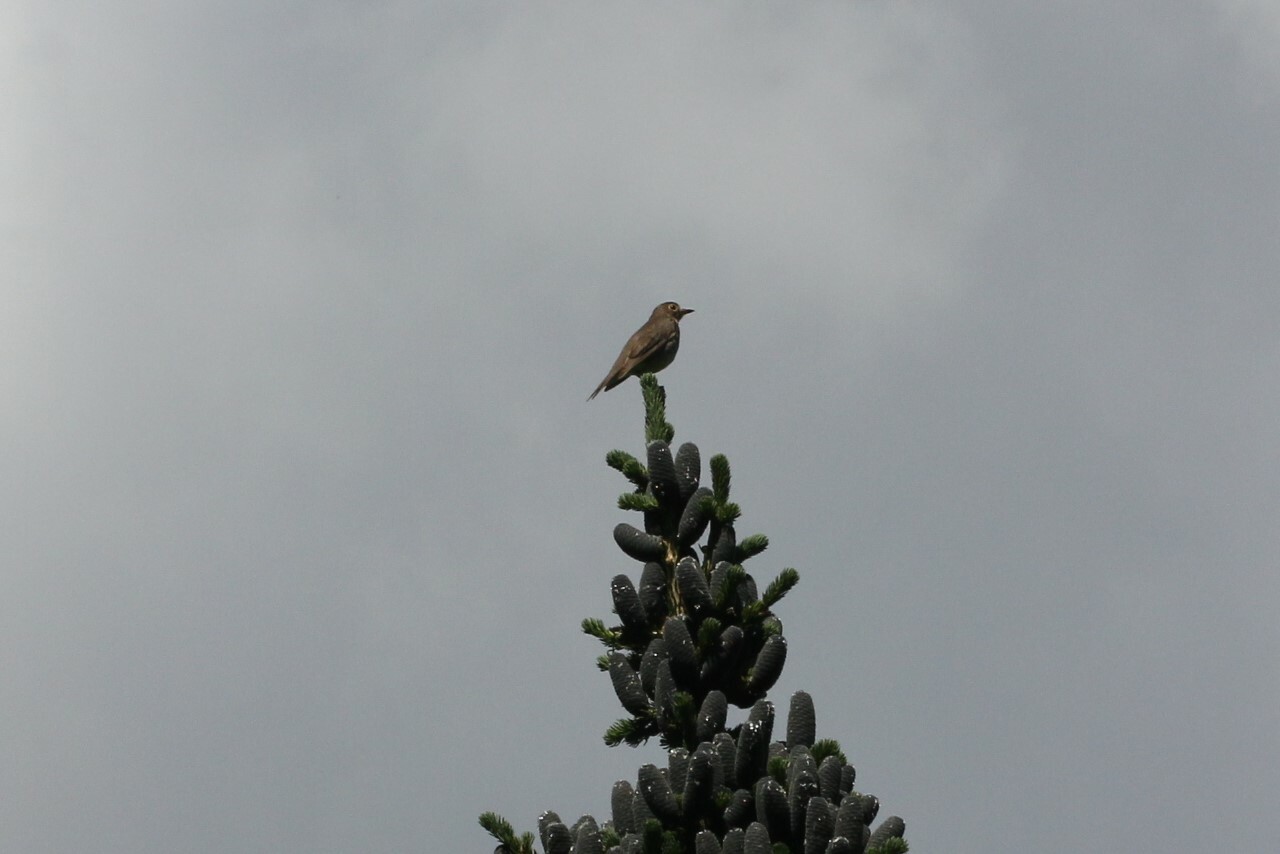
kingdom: Animalia
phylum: Chordata
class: Aves
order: Passeriformes
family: Turdidae
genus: Catharus
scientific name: Catharus ustulatus
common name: Swainson's thrush
